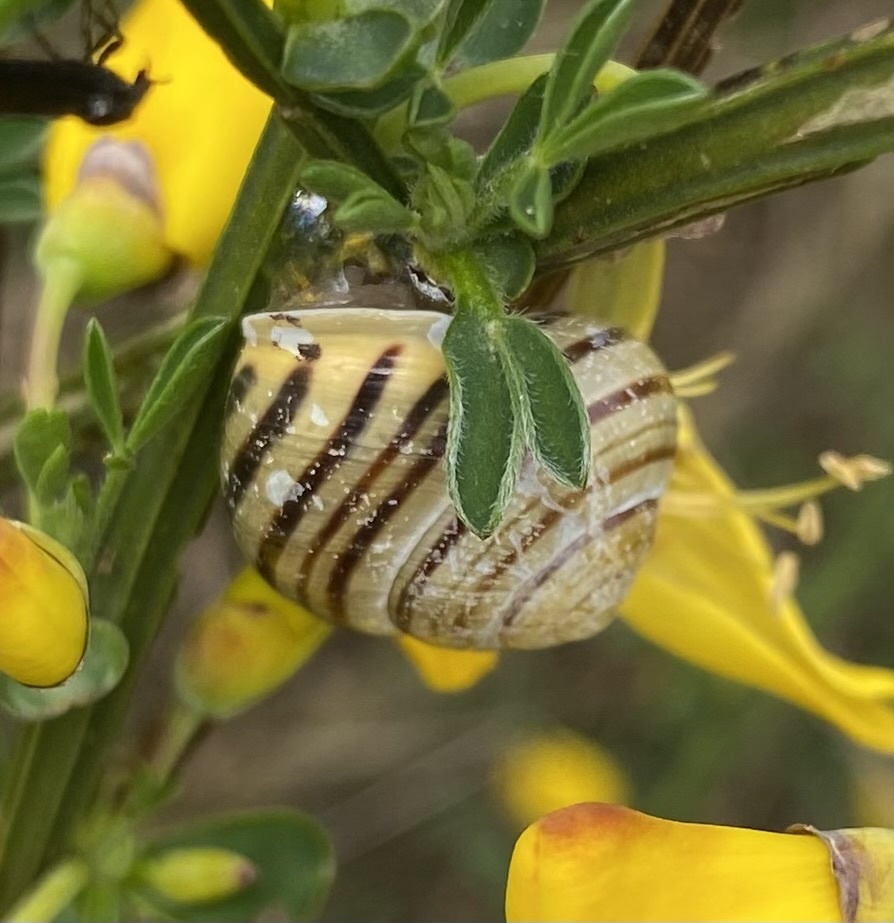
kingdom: Animalia
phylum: Mollusca
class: Gastropoda
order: Stylommatophora
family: Helicidae
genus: Cepaea
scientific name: Cepaea hortensis
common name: White-lip gardensnail
